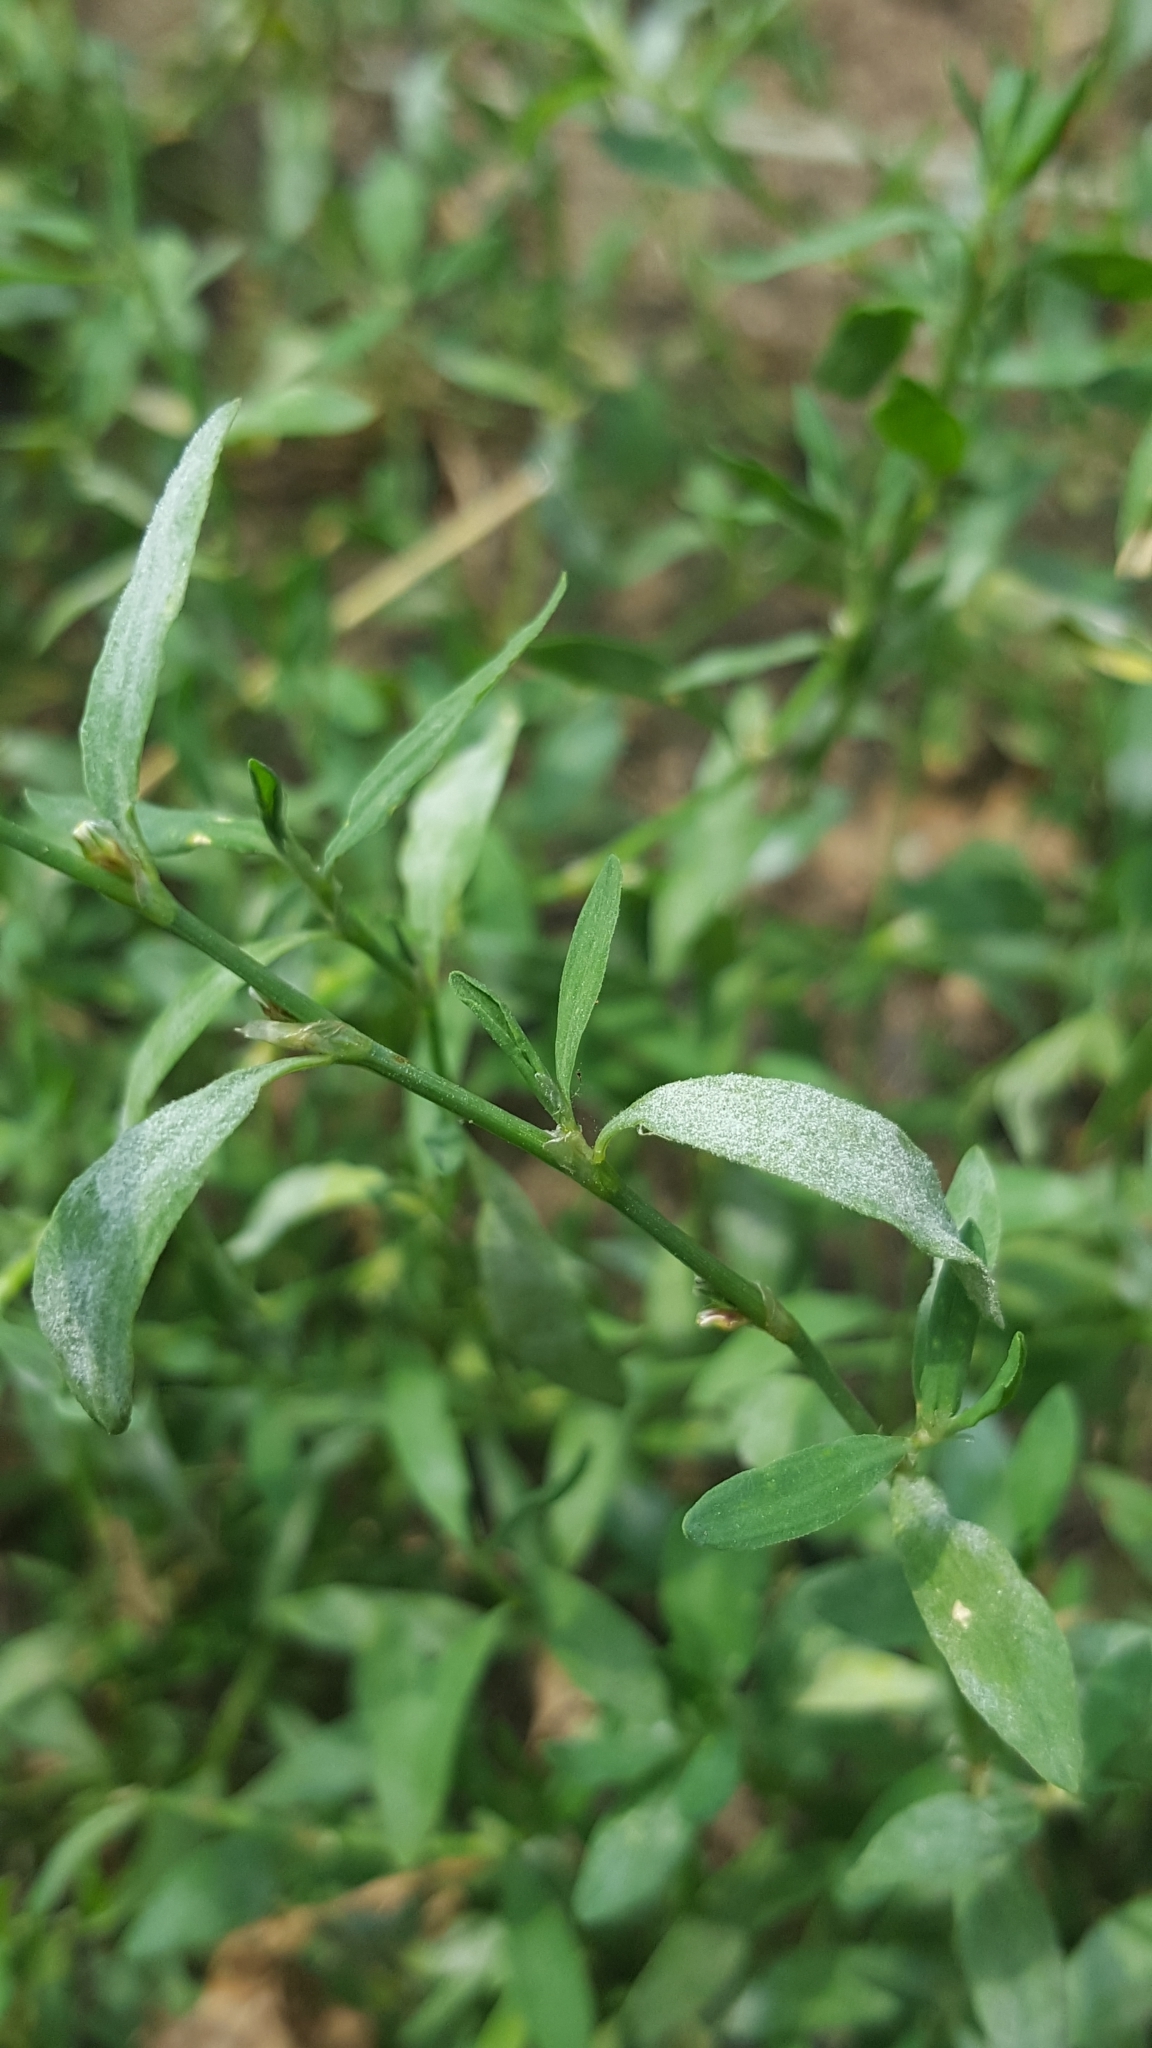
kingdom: Fungi
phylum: Ascomycota
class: Leotiomycetes
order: Helotiales
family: Erysiphaceae
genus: Erysiphe
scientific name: Erysiphe polygoni
